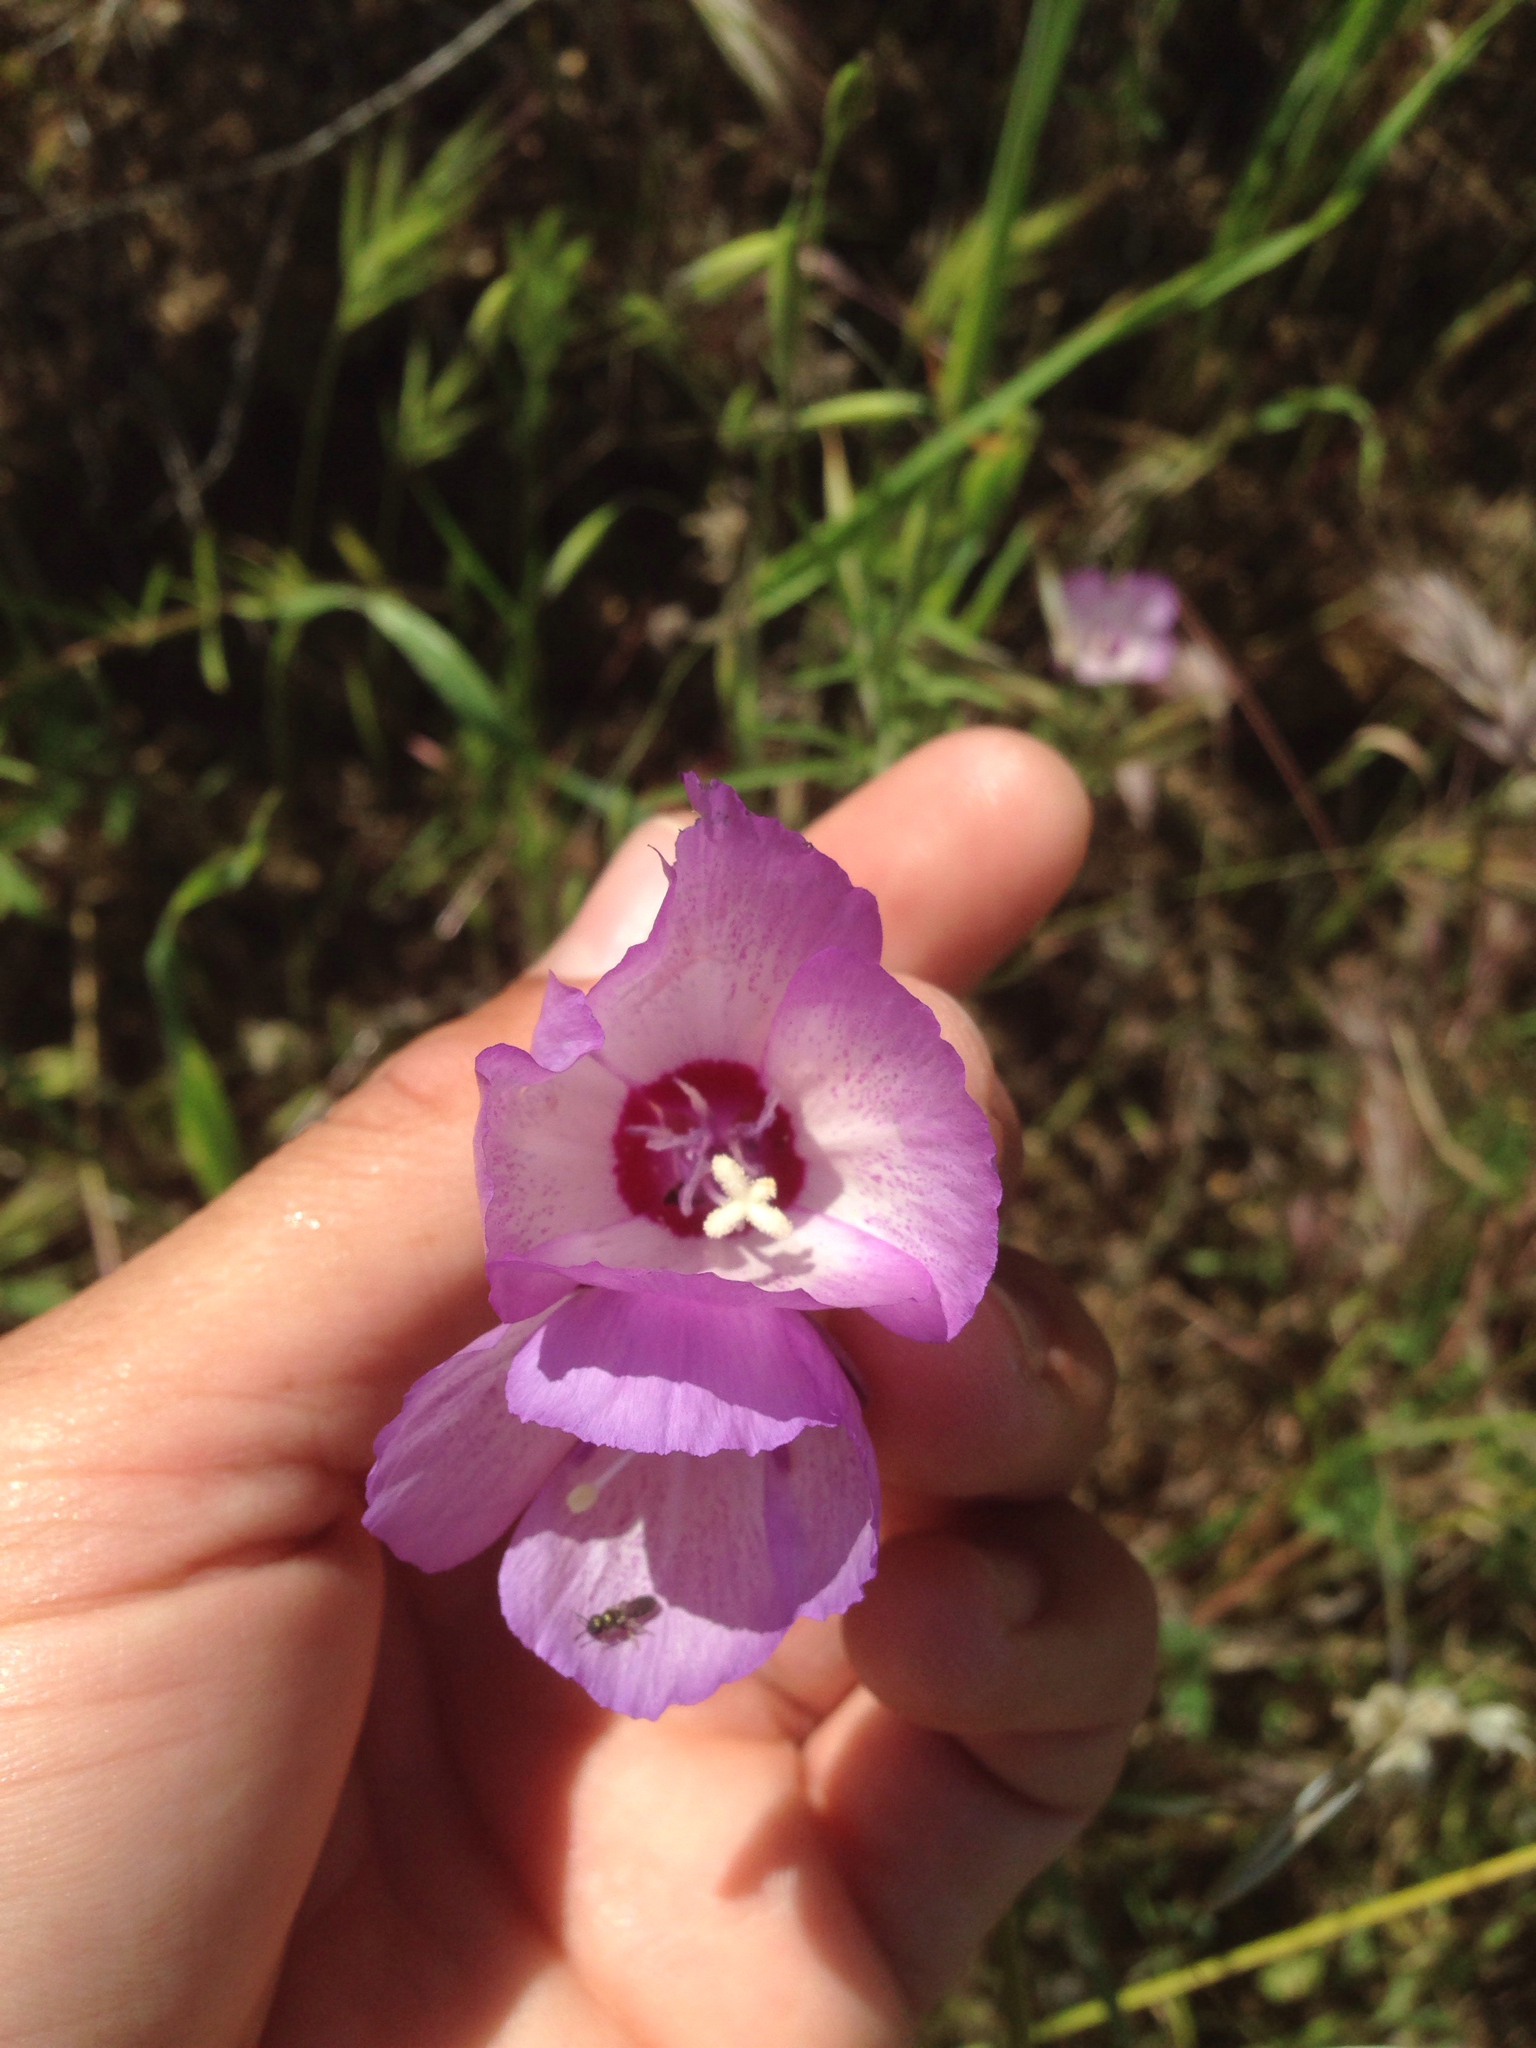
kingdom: Plantae
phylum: Tracheophyta
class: Magnoliopsida
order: Myrtales
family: Onagraceae
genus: Clarkia
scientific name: Clarkia cylindrica
